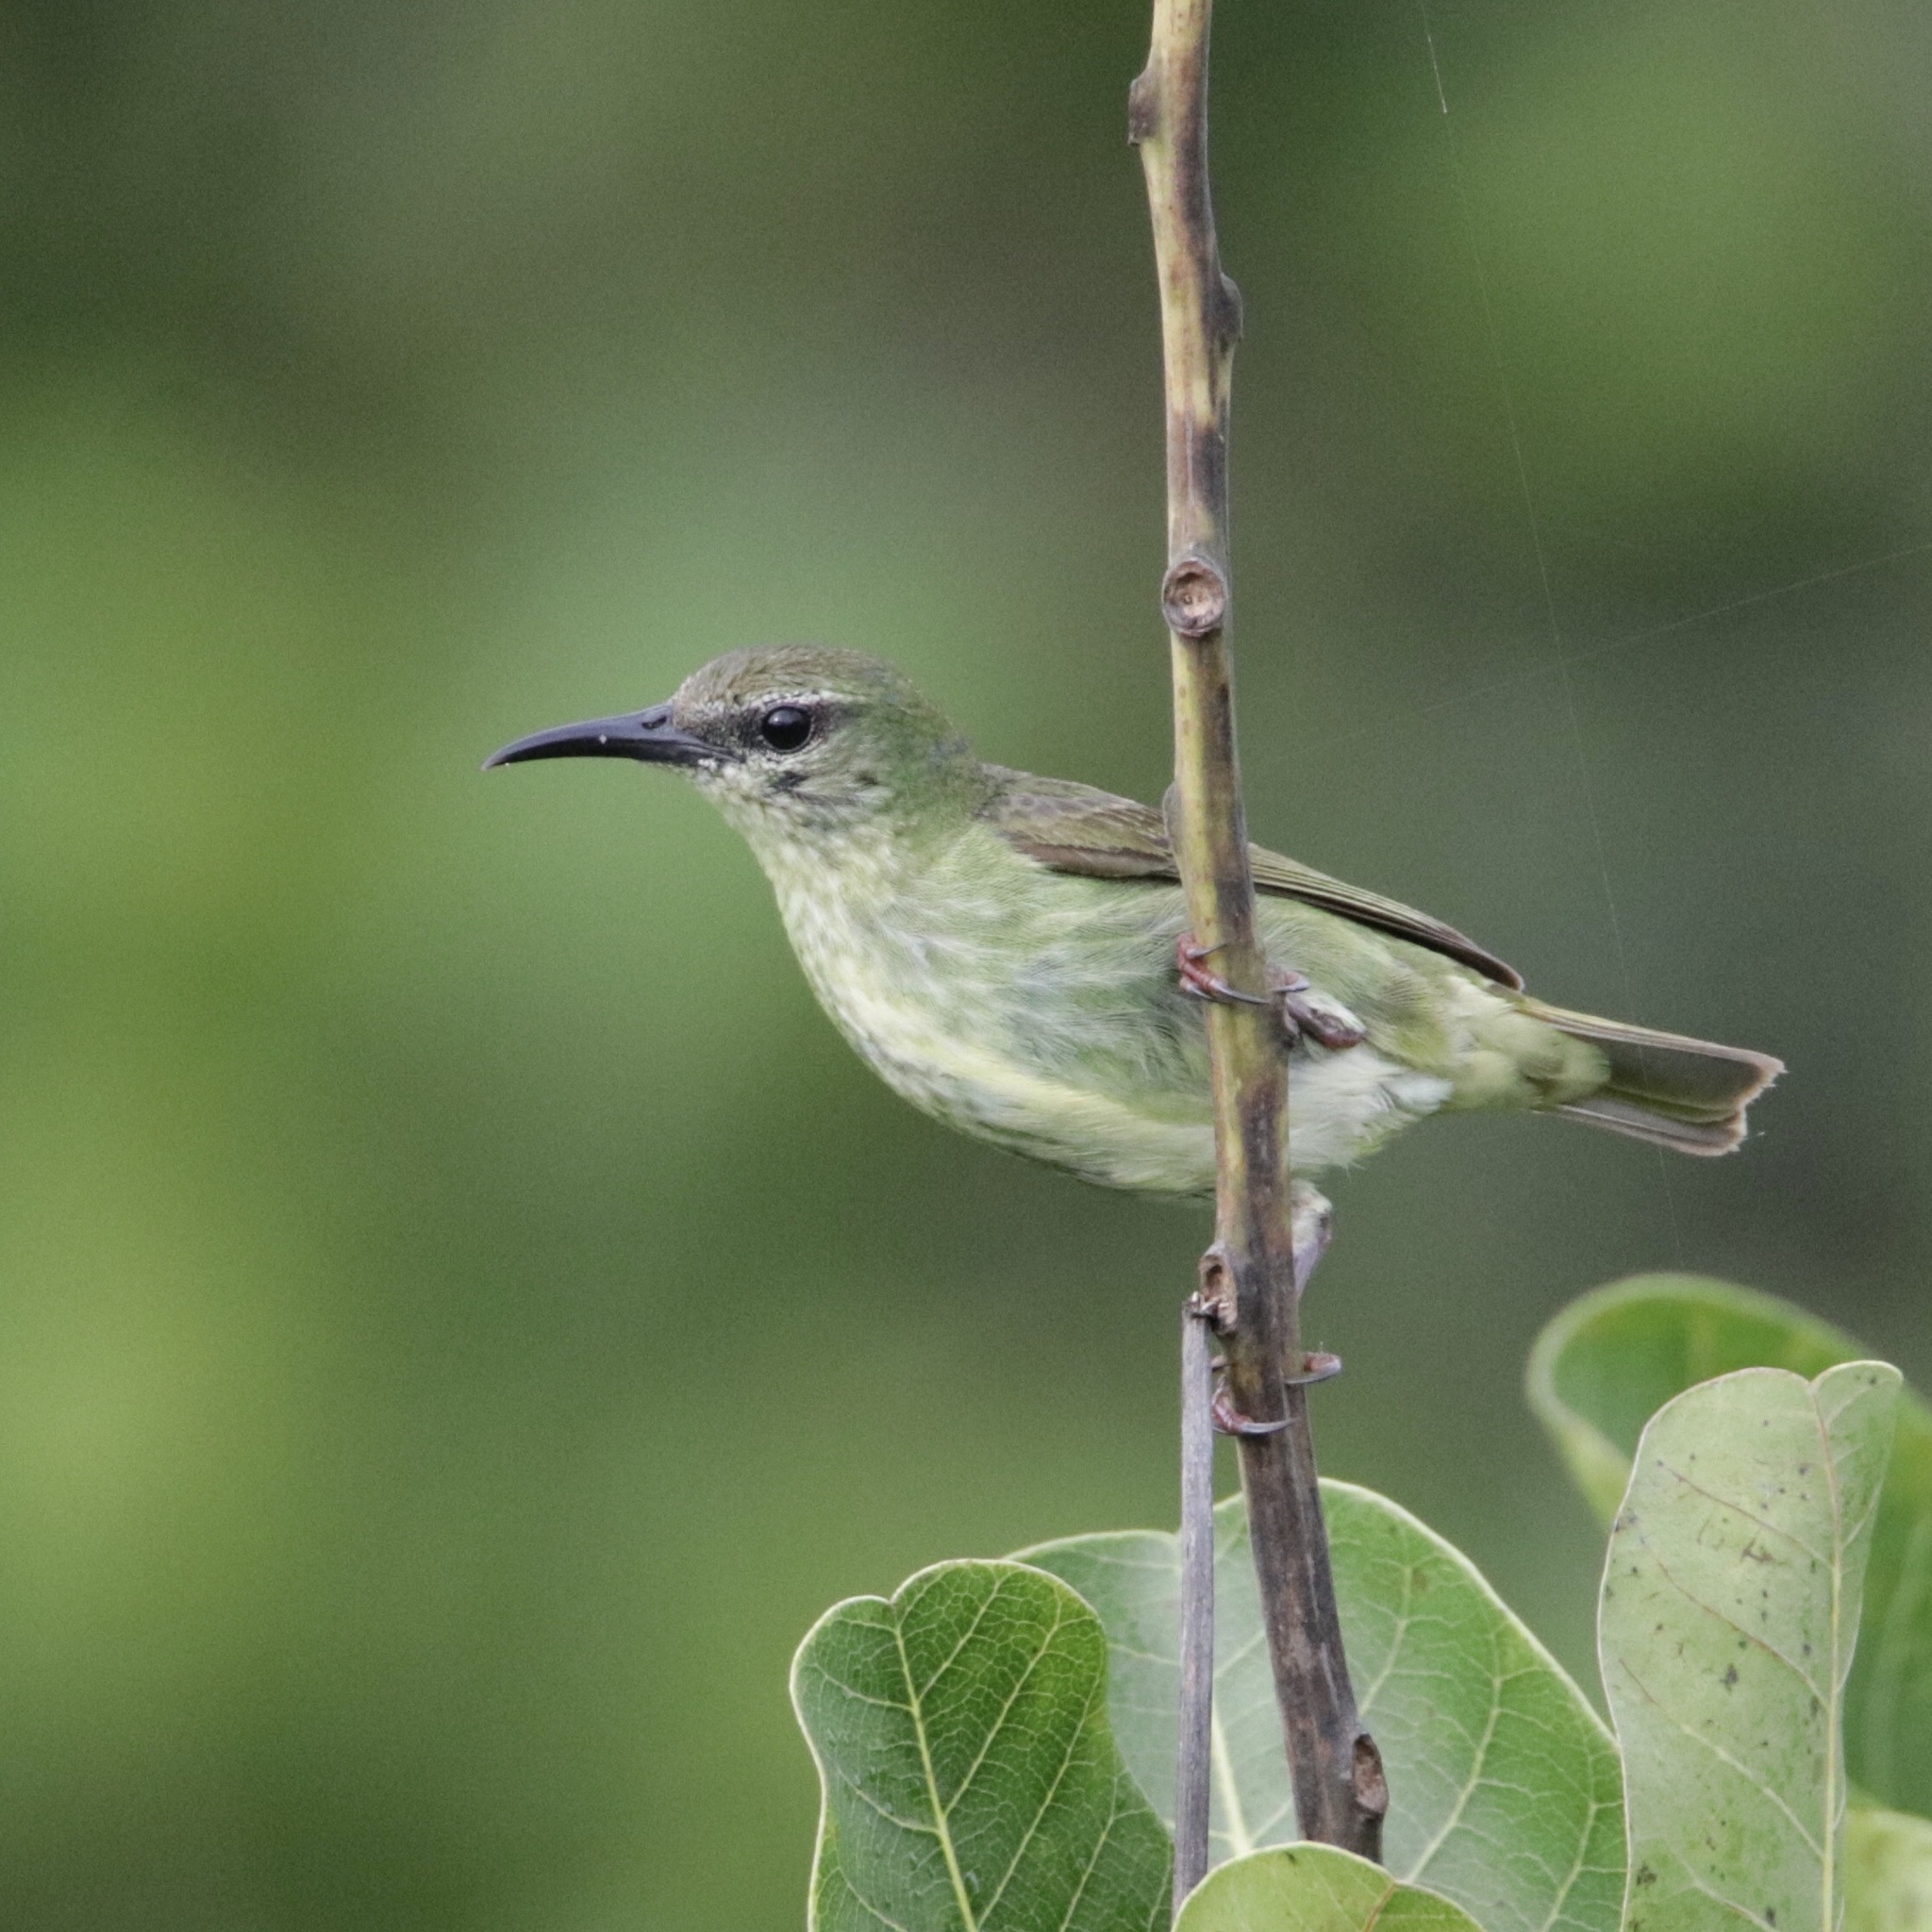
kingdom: Animalia
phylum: Chordata
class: Aves
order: Passeriformes
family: Thraupidae
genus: Cyanerpes
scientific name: Cyanerpes cyaneus
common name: Red-legged honeycreeper
